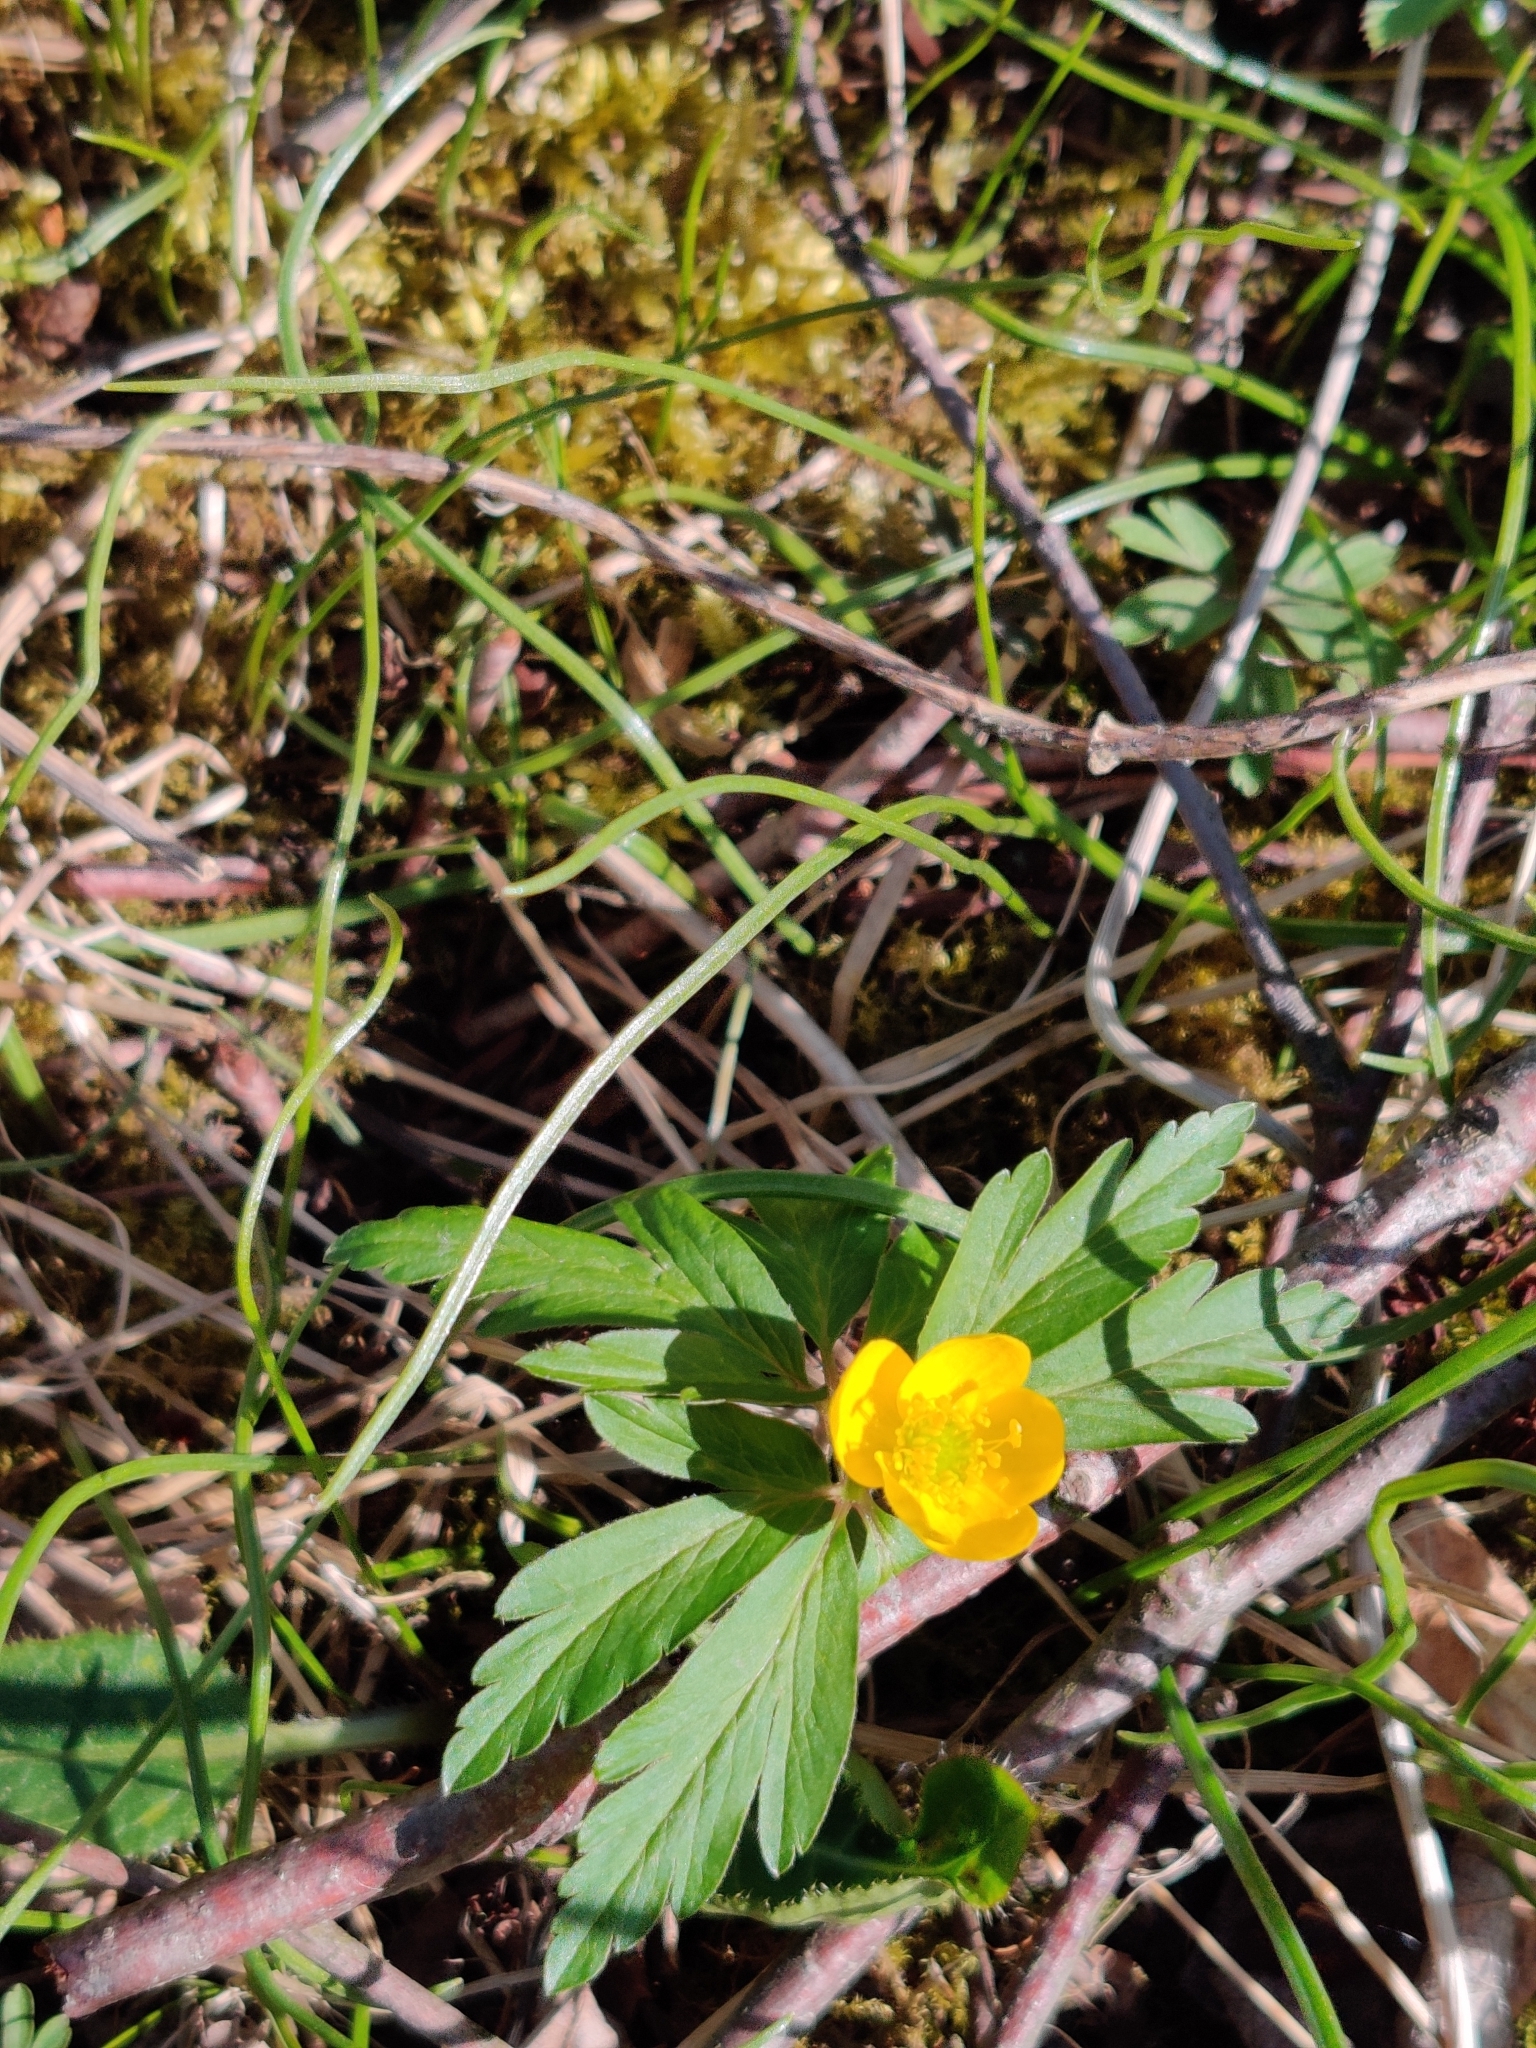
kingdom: Plantae
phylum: Tracheophyta
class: Magnoliopsida
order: Ranunculales
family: Ranunculaceae
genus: Anemone
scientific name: Anemone ranunculoides
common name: Yellow anemone
